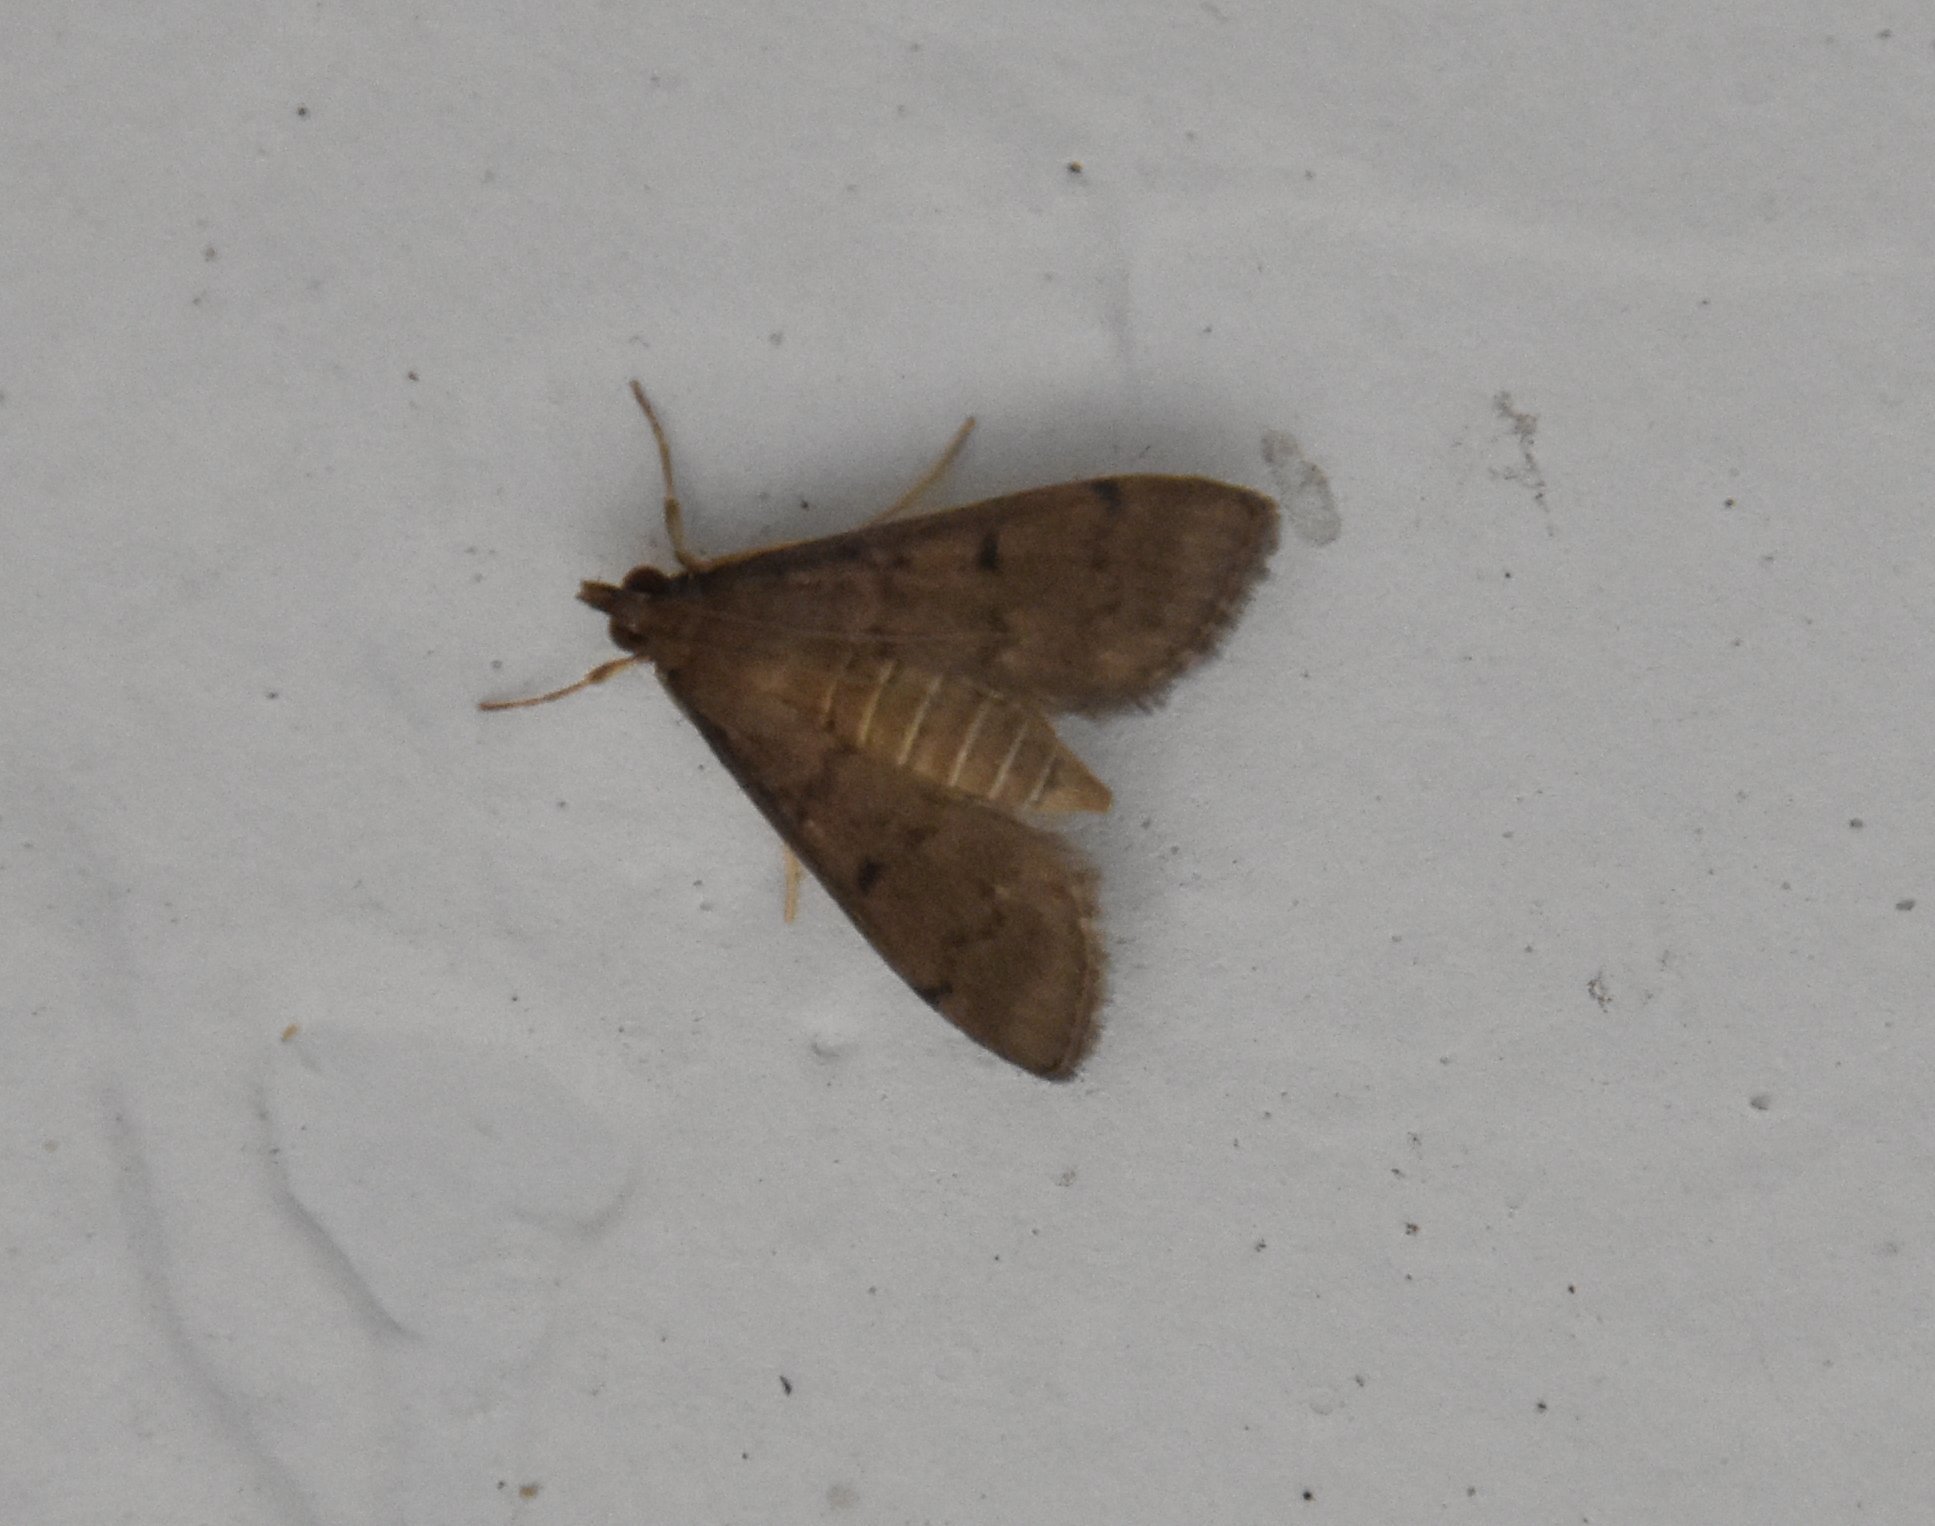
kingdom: Animalia
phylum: Arthropoda
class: Insecta
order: Lepidoptera
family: Crambidae
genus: Herpetogramma
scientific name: Herpetogramma phaeopteralis
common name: Dusky herpetogramma moth
